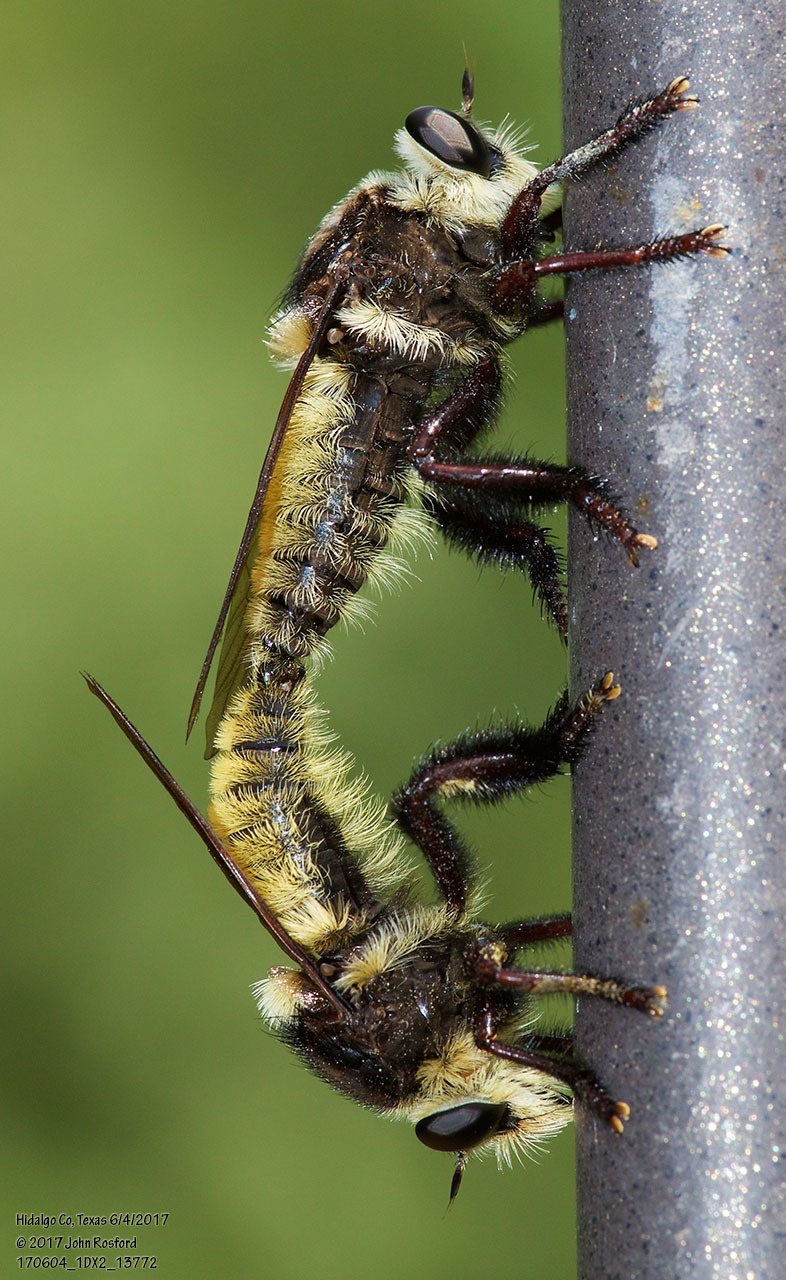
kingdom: Animalia
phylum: Arthropoda
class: Insecta
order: Diptera
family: Asilidae
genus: Mallophora
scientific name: Mallophora fautrix
